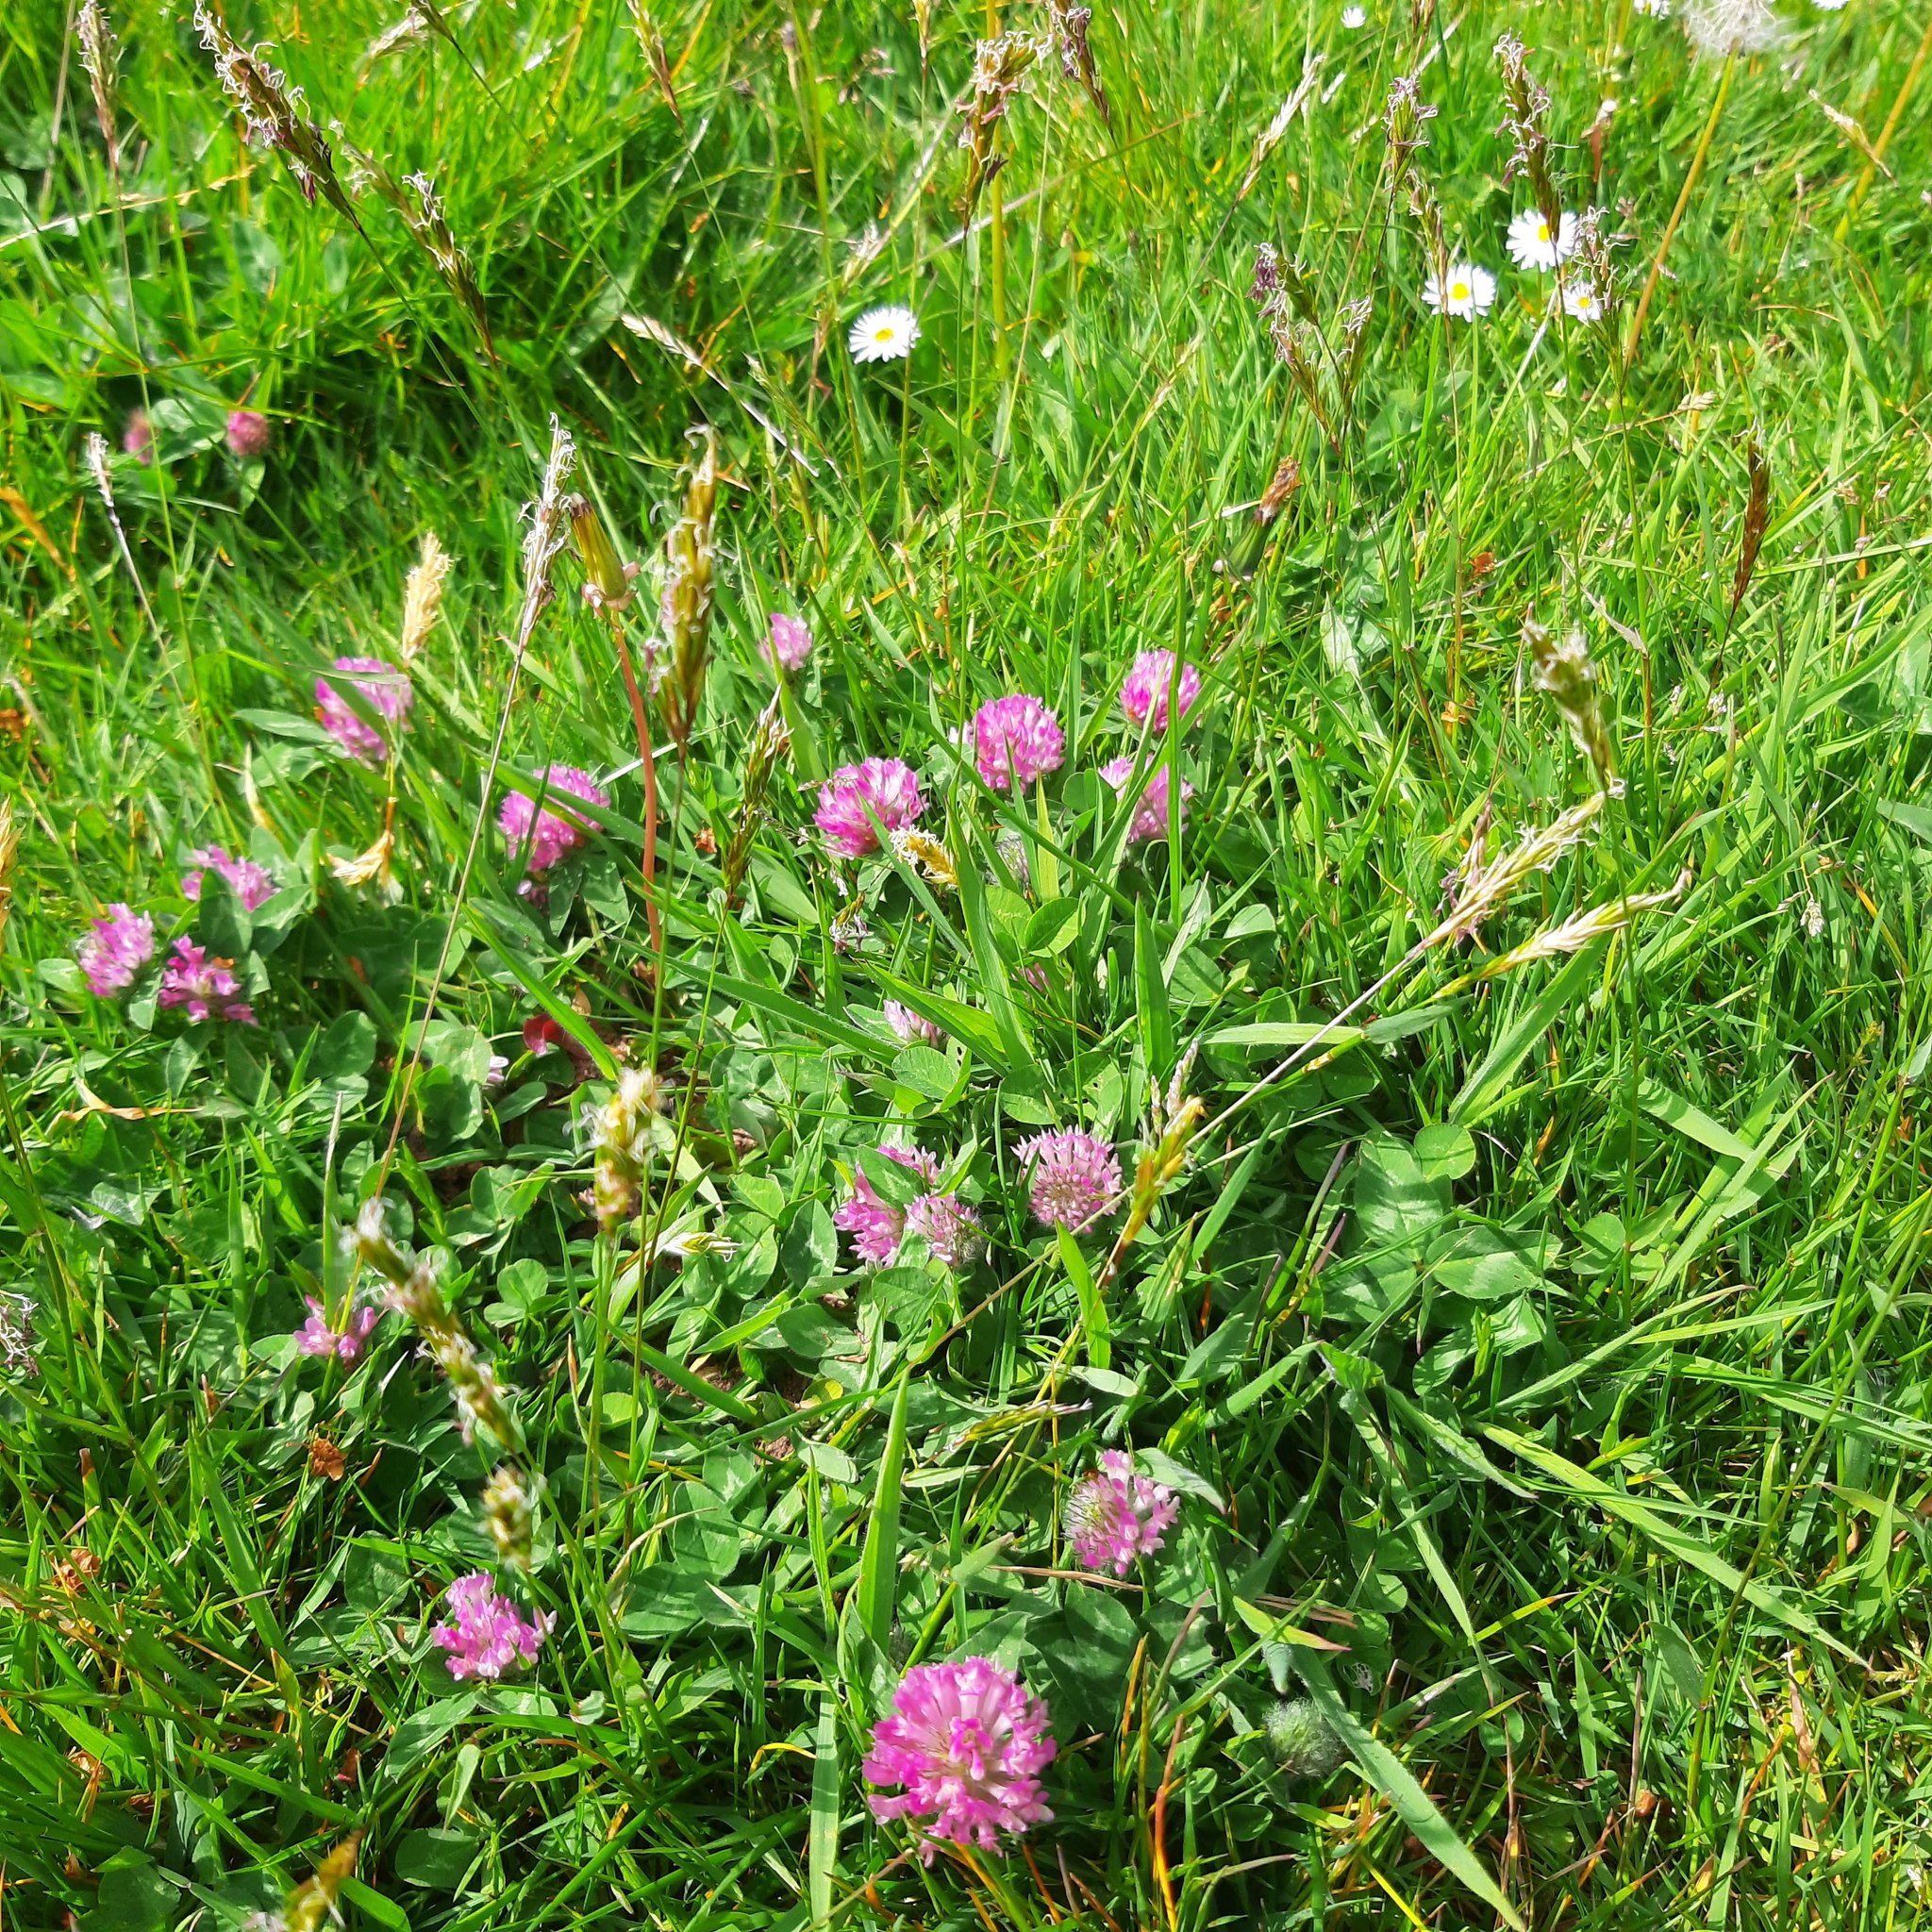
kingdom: Plantae
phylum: Tracheophyta
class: Liliopsida
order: Poales
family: Poaceae
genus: Anthoxanthum
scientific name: Anthoxanthum odoratum
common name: Sweet vernalgrass
